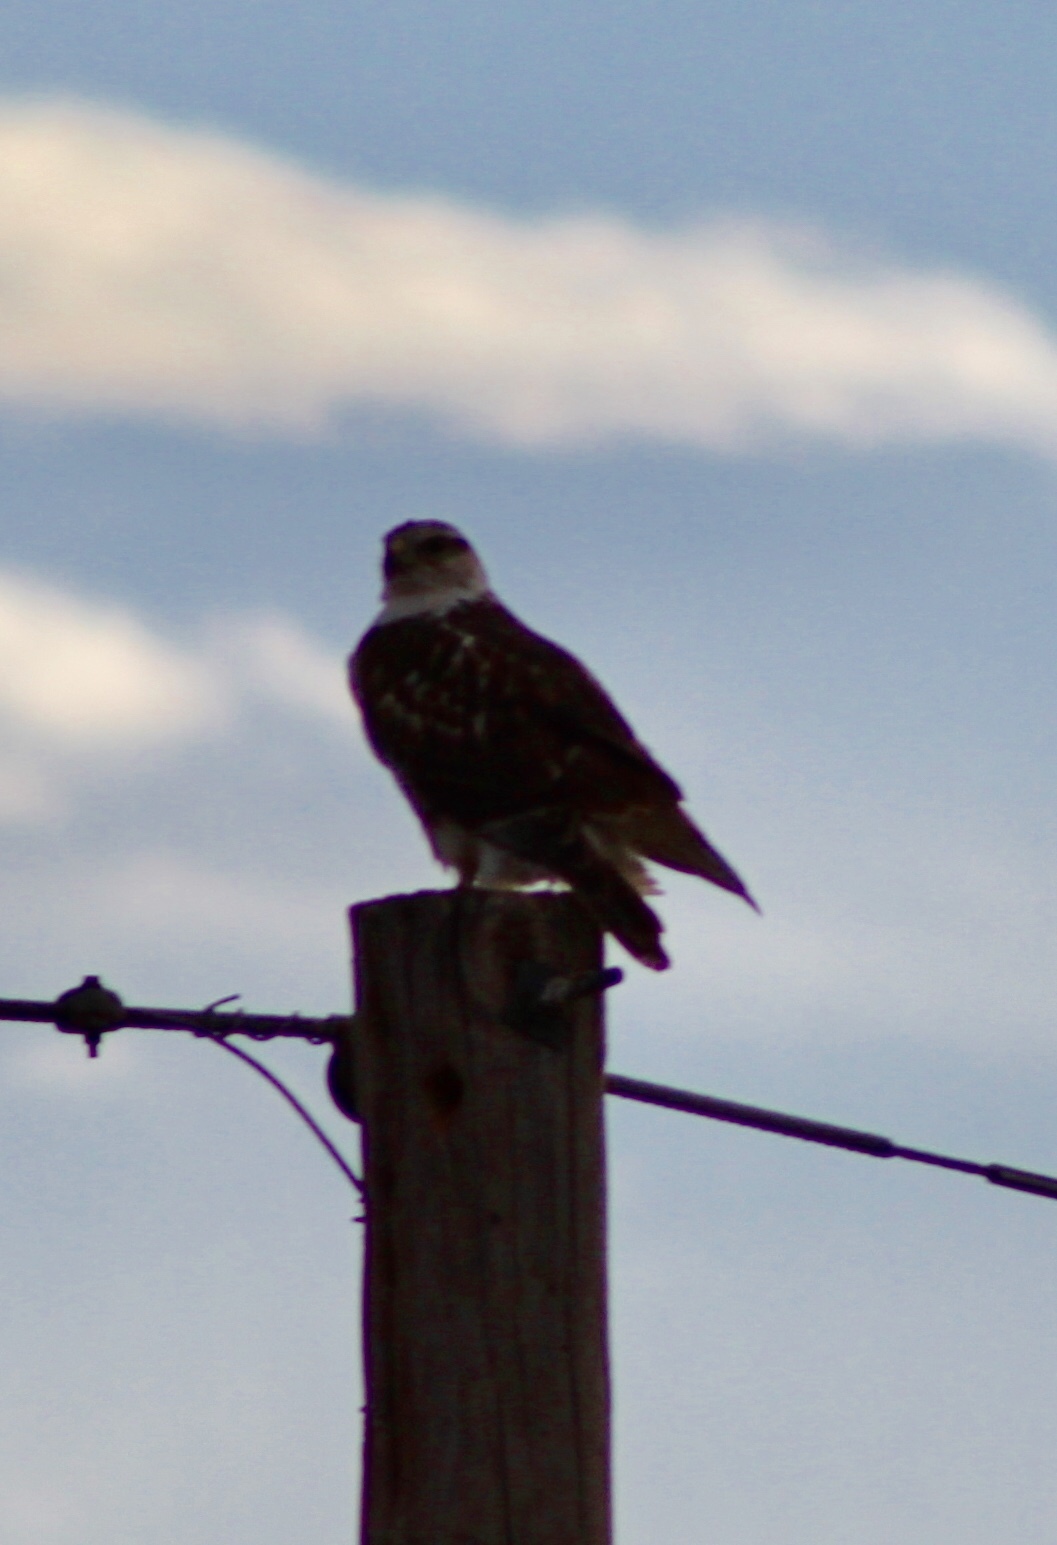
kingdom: Animalia
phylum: Chordata
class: Aves
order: Accipitriformes
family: Accipitridae
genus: Buteo
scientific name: Buteo regalis
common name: Ferruginous hawk
